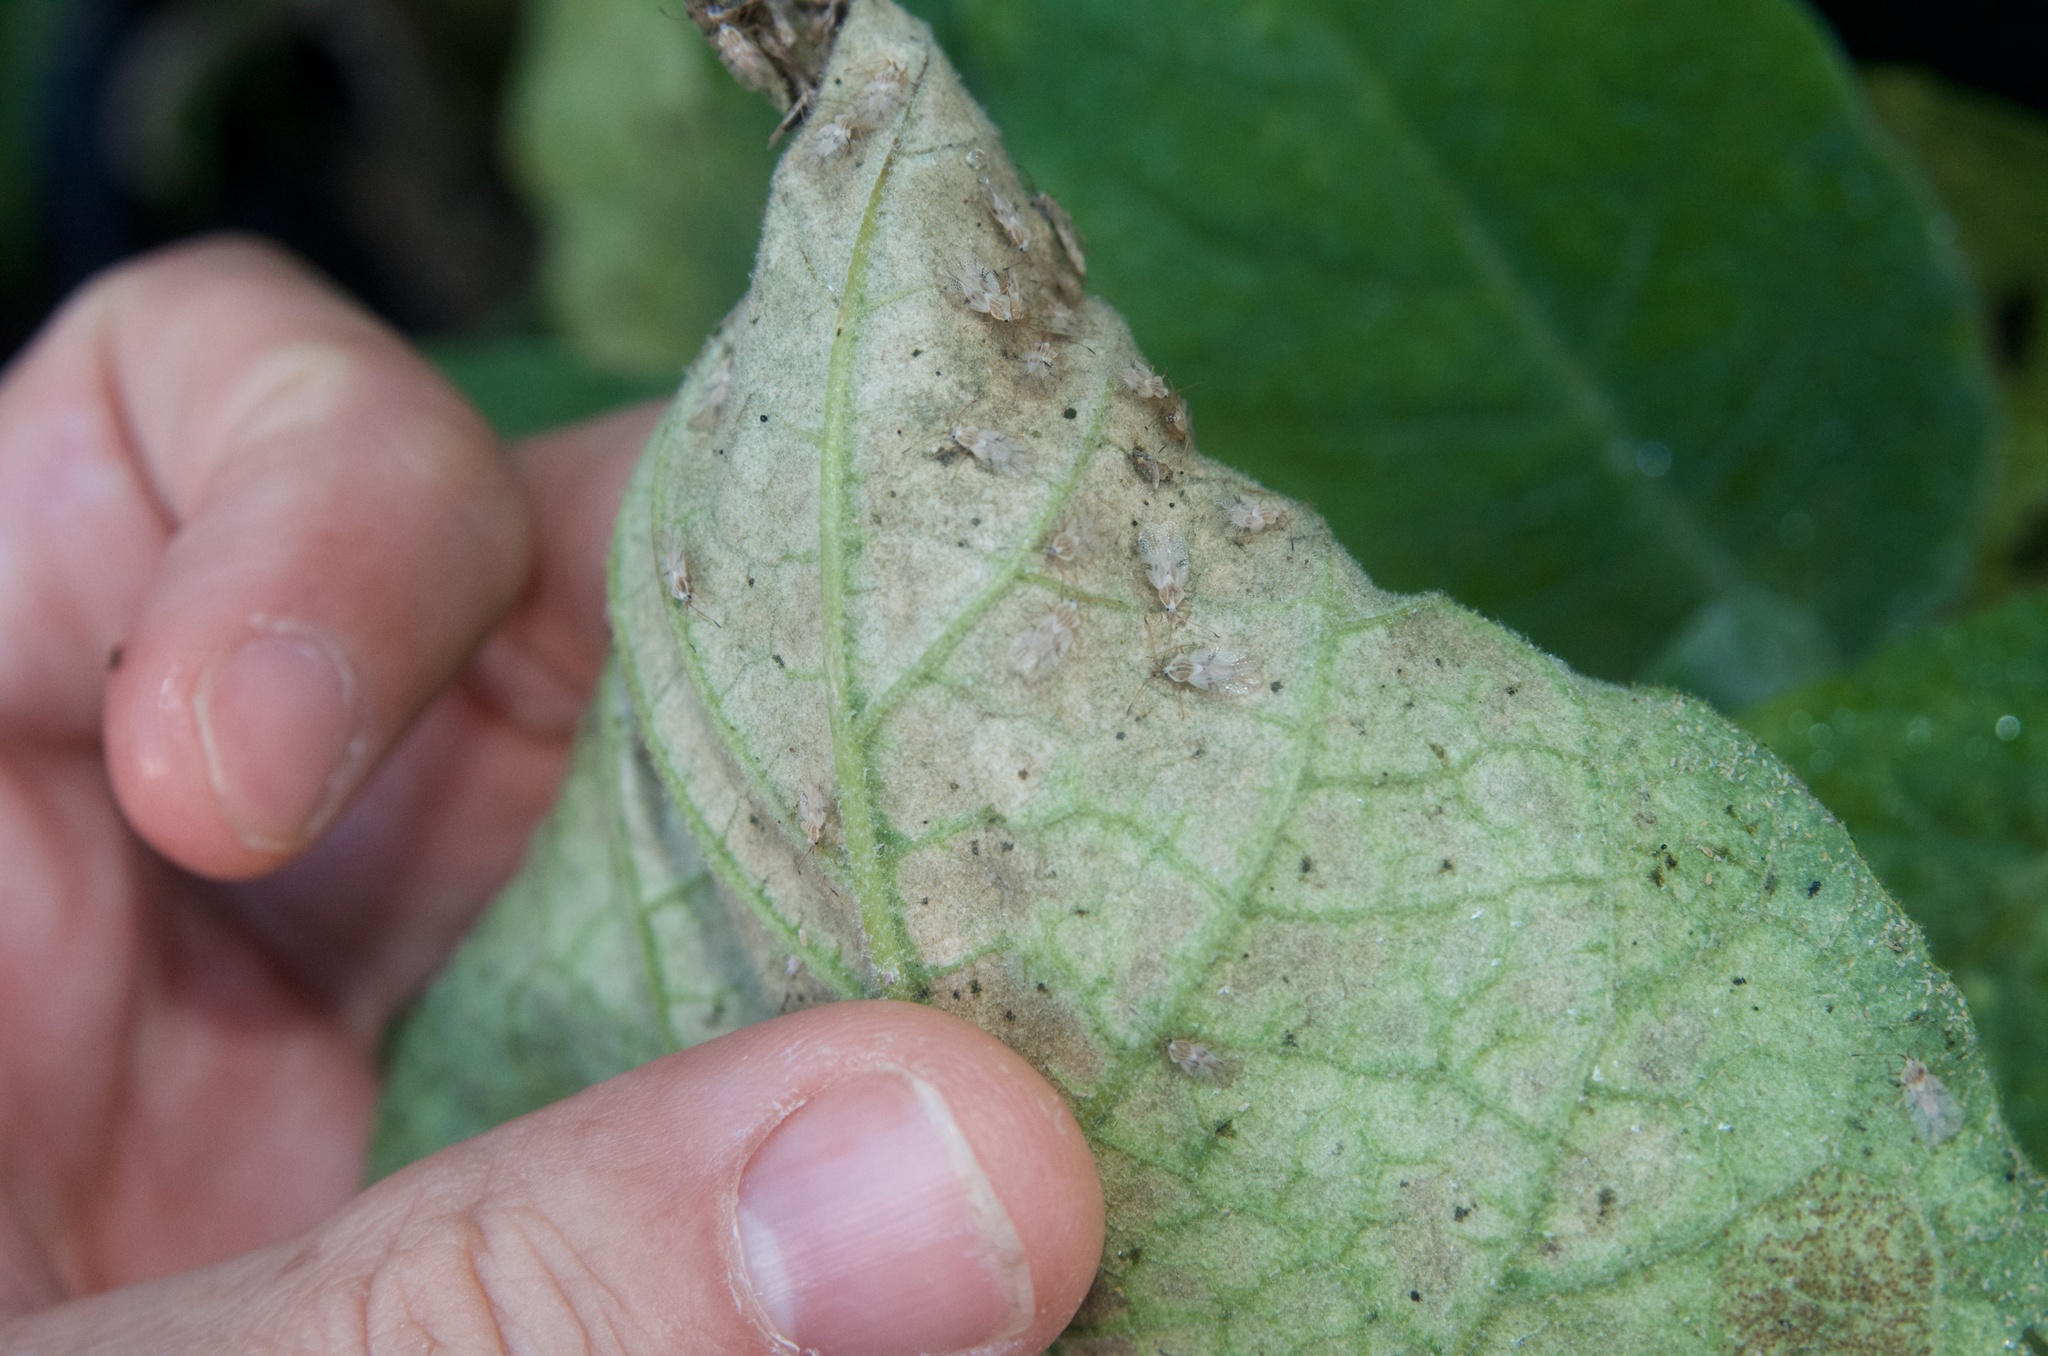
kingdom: Animalia
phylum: Arthropoda
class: Insecta
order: Hemiptera
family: Tingidae
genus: Gargaphia
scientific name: Gargaphia decoris
